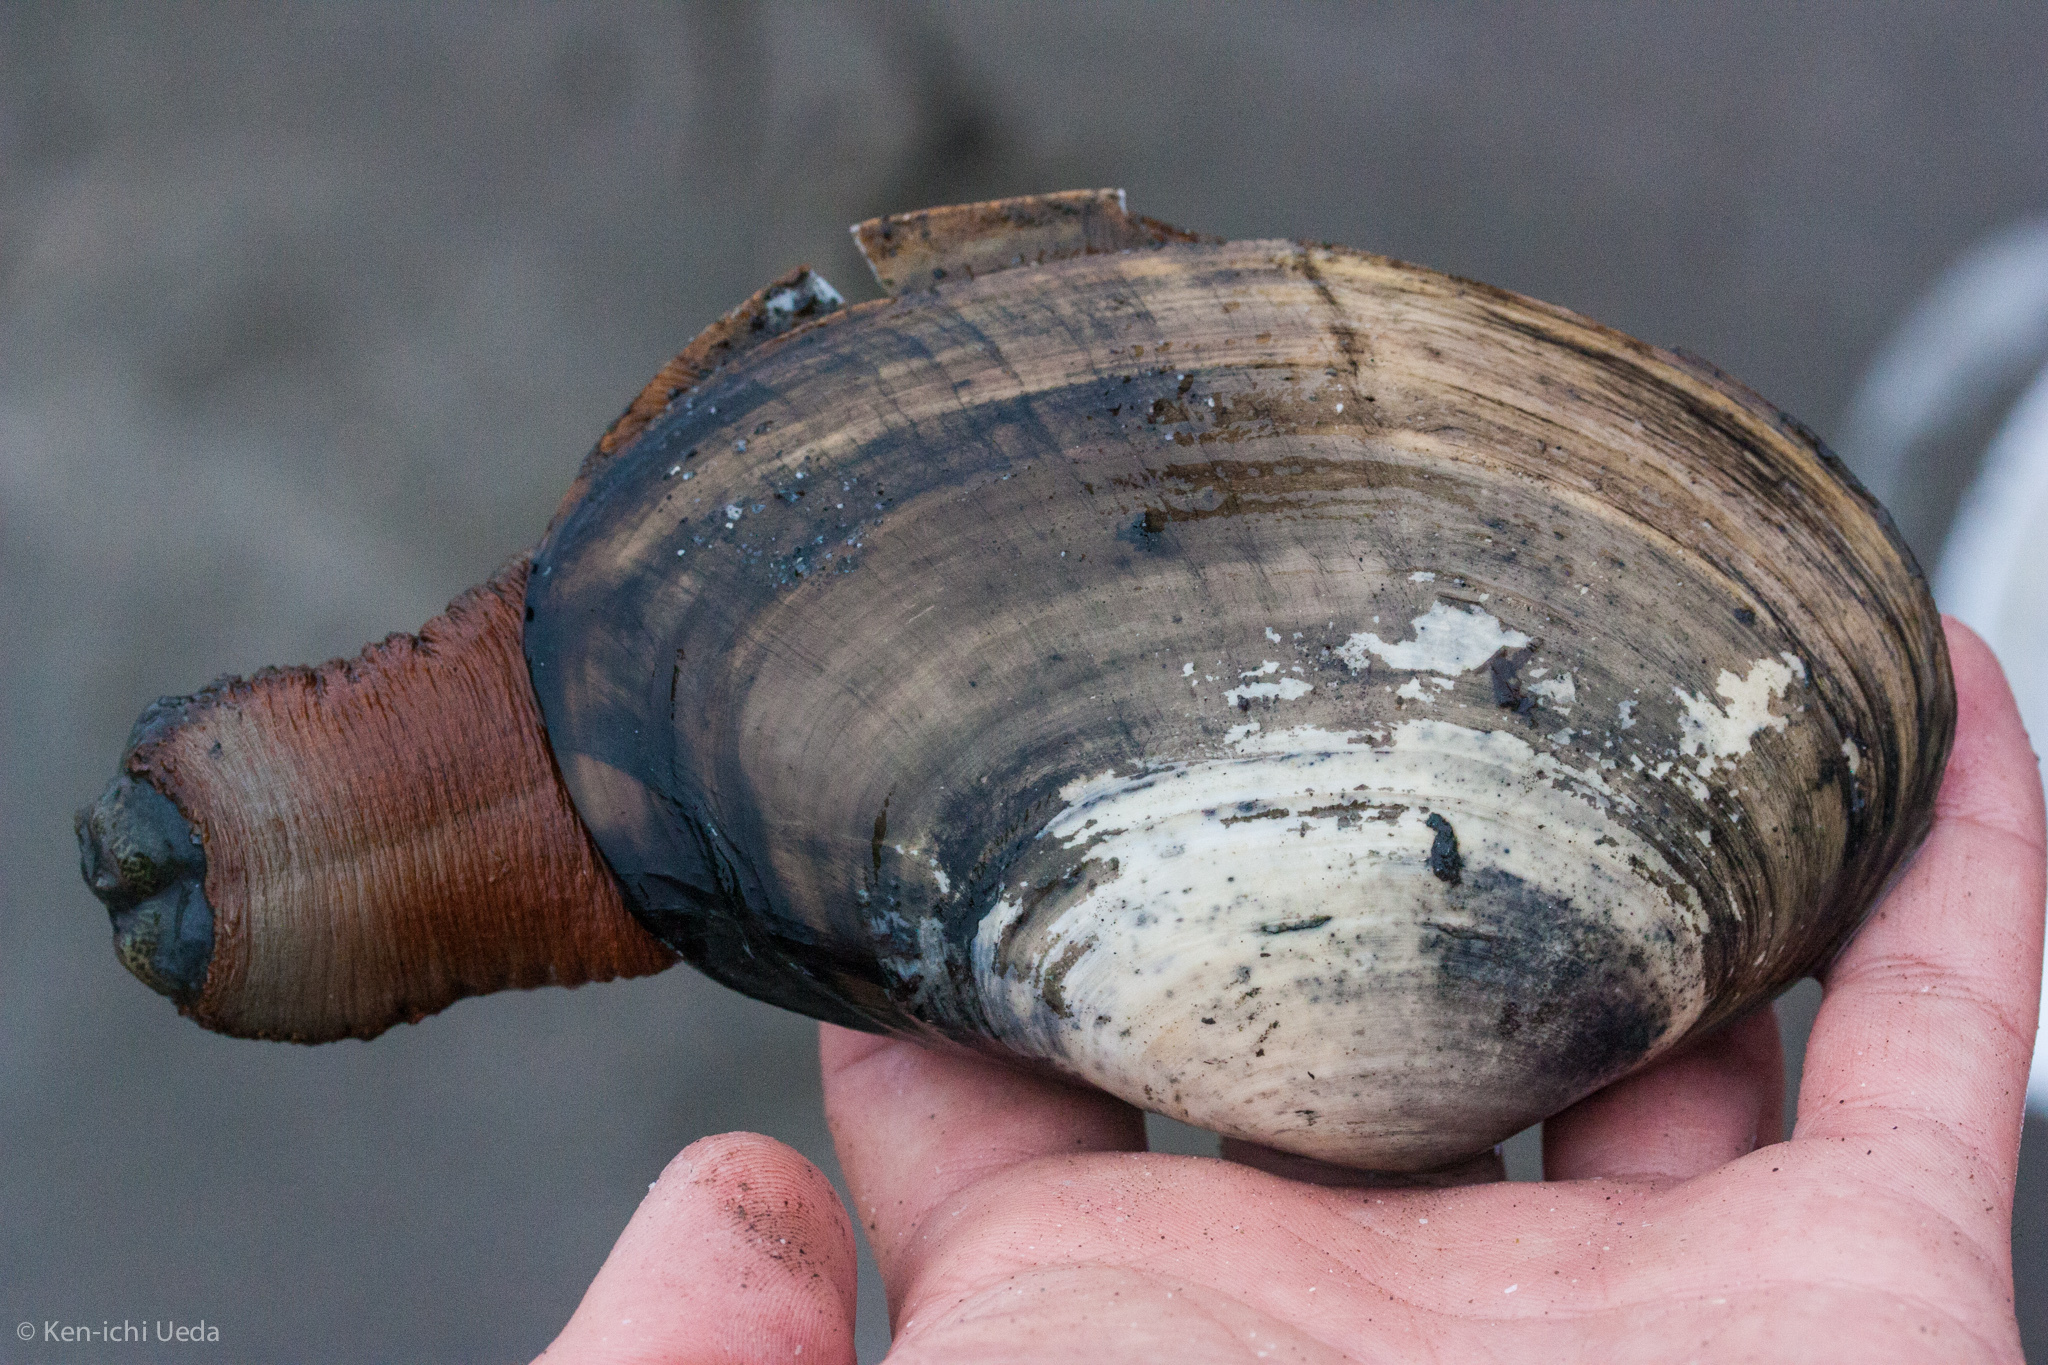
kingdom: Animalia
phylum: Mollusca
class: Bivalvia
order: Venerida
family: Mactridae
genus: Tresus
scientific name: Tresus nuttallii
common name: Pacific gaper clam
